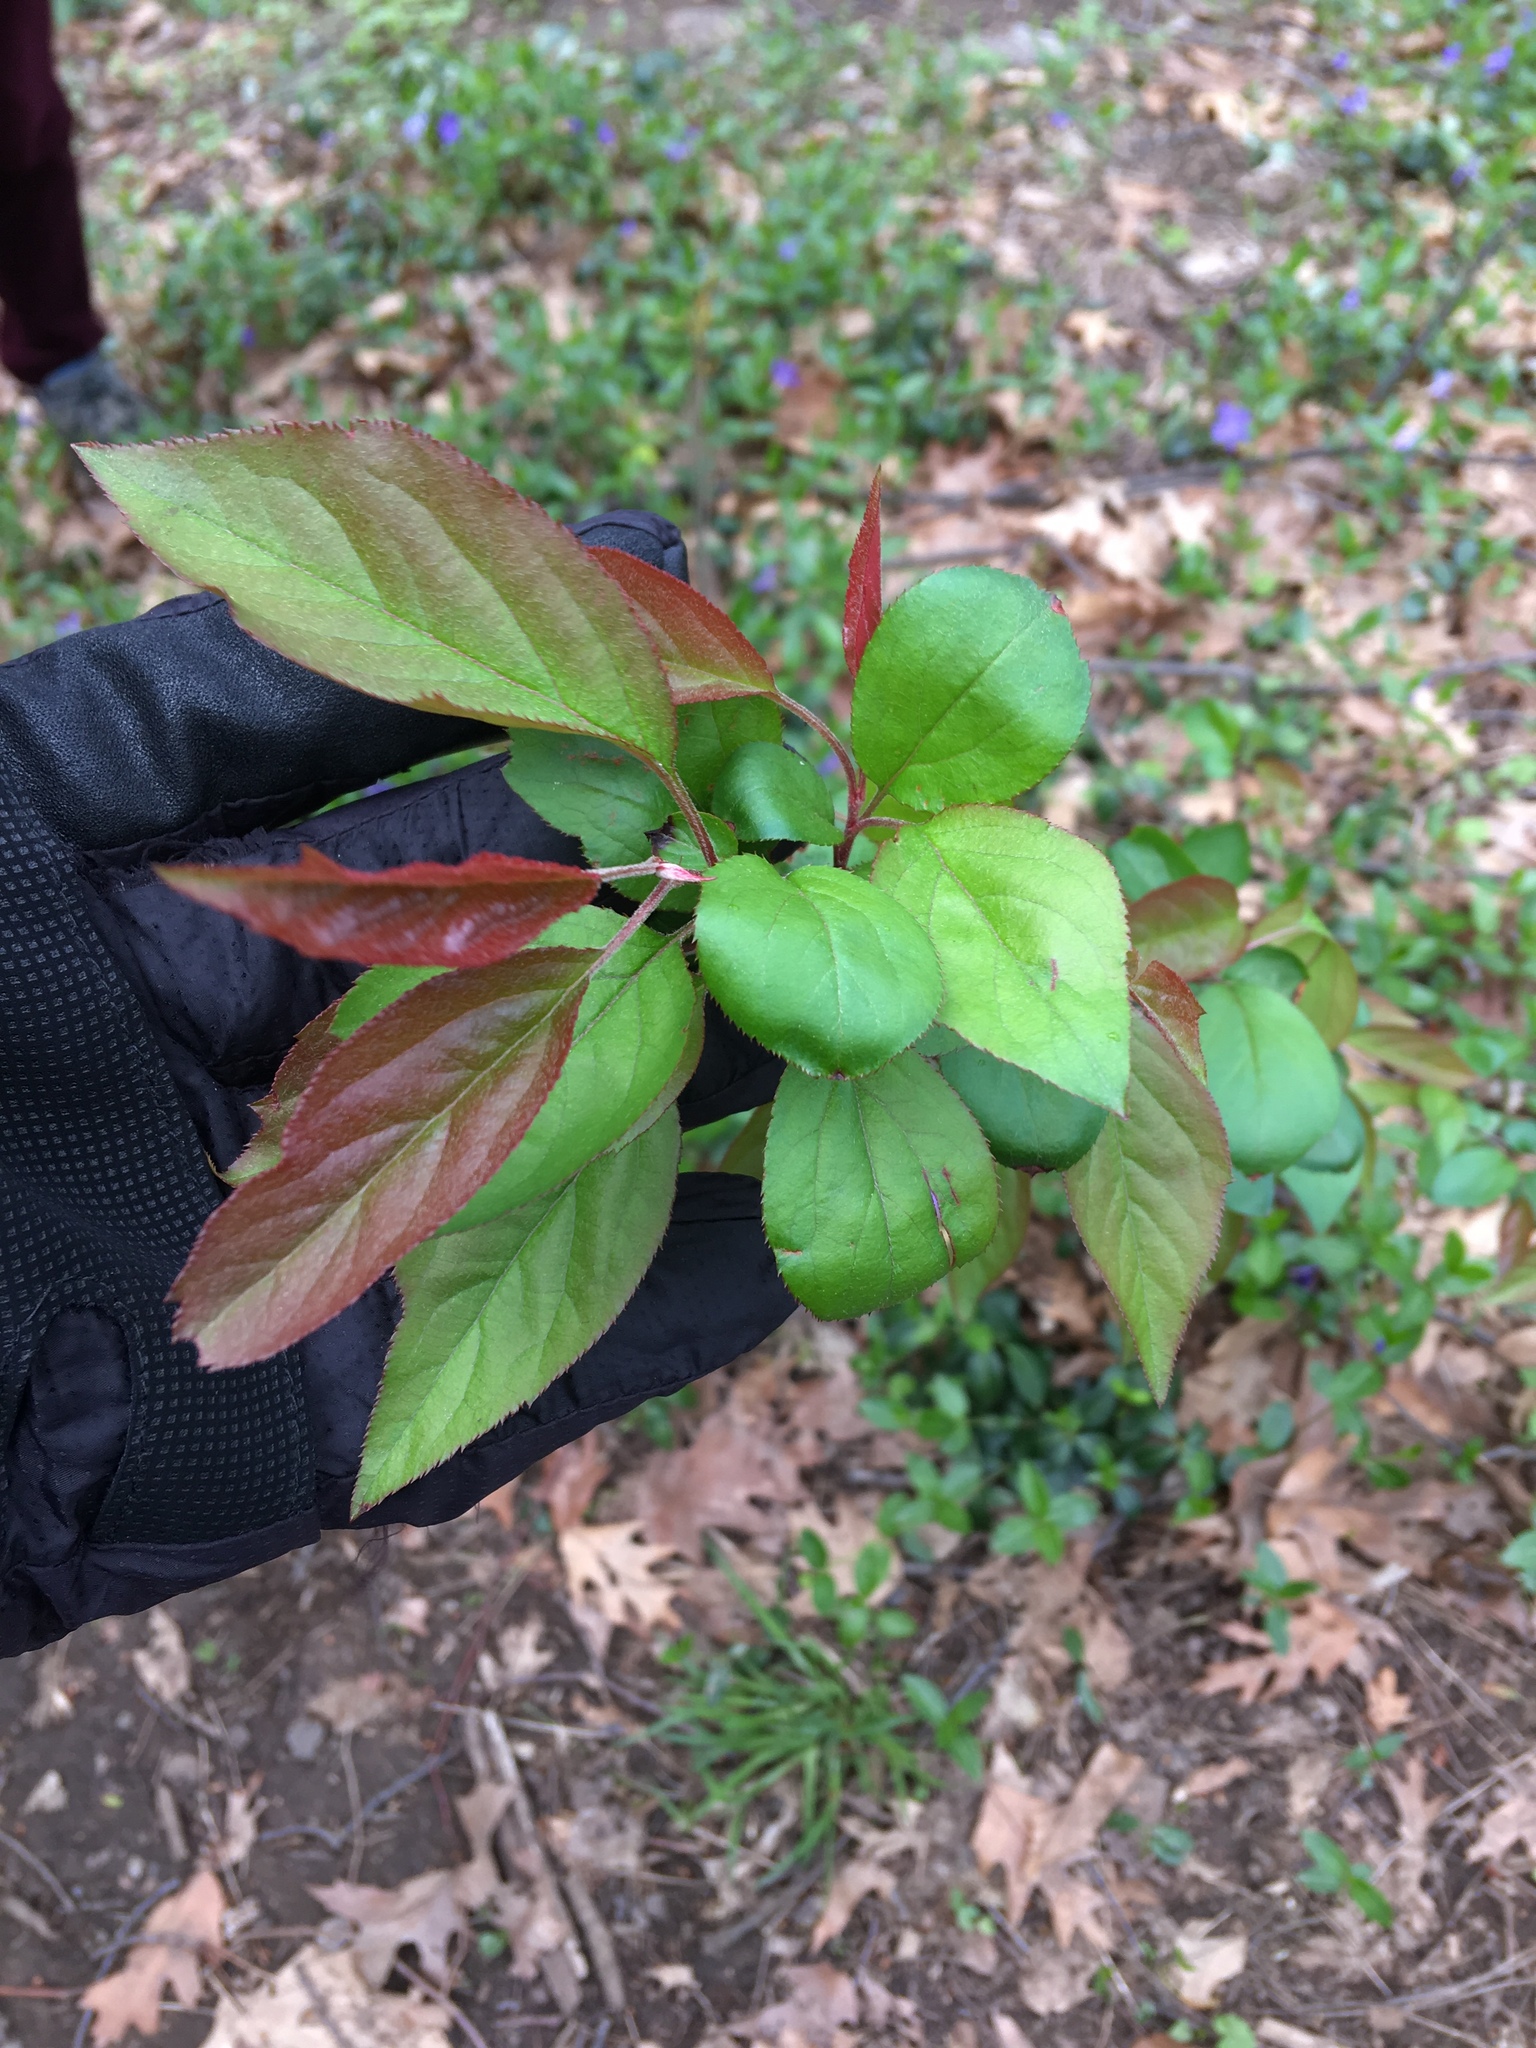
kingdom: Plantae
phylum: Tracheophyta
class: Magnoliopsida
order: Rosales
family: Rosaceae
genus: Malus
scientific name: Malus toringo
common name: Japanese crabapple
